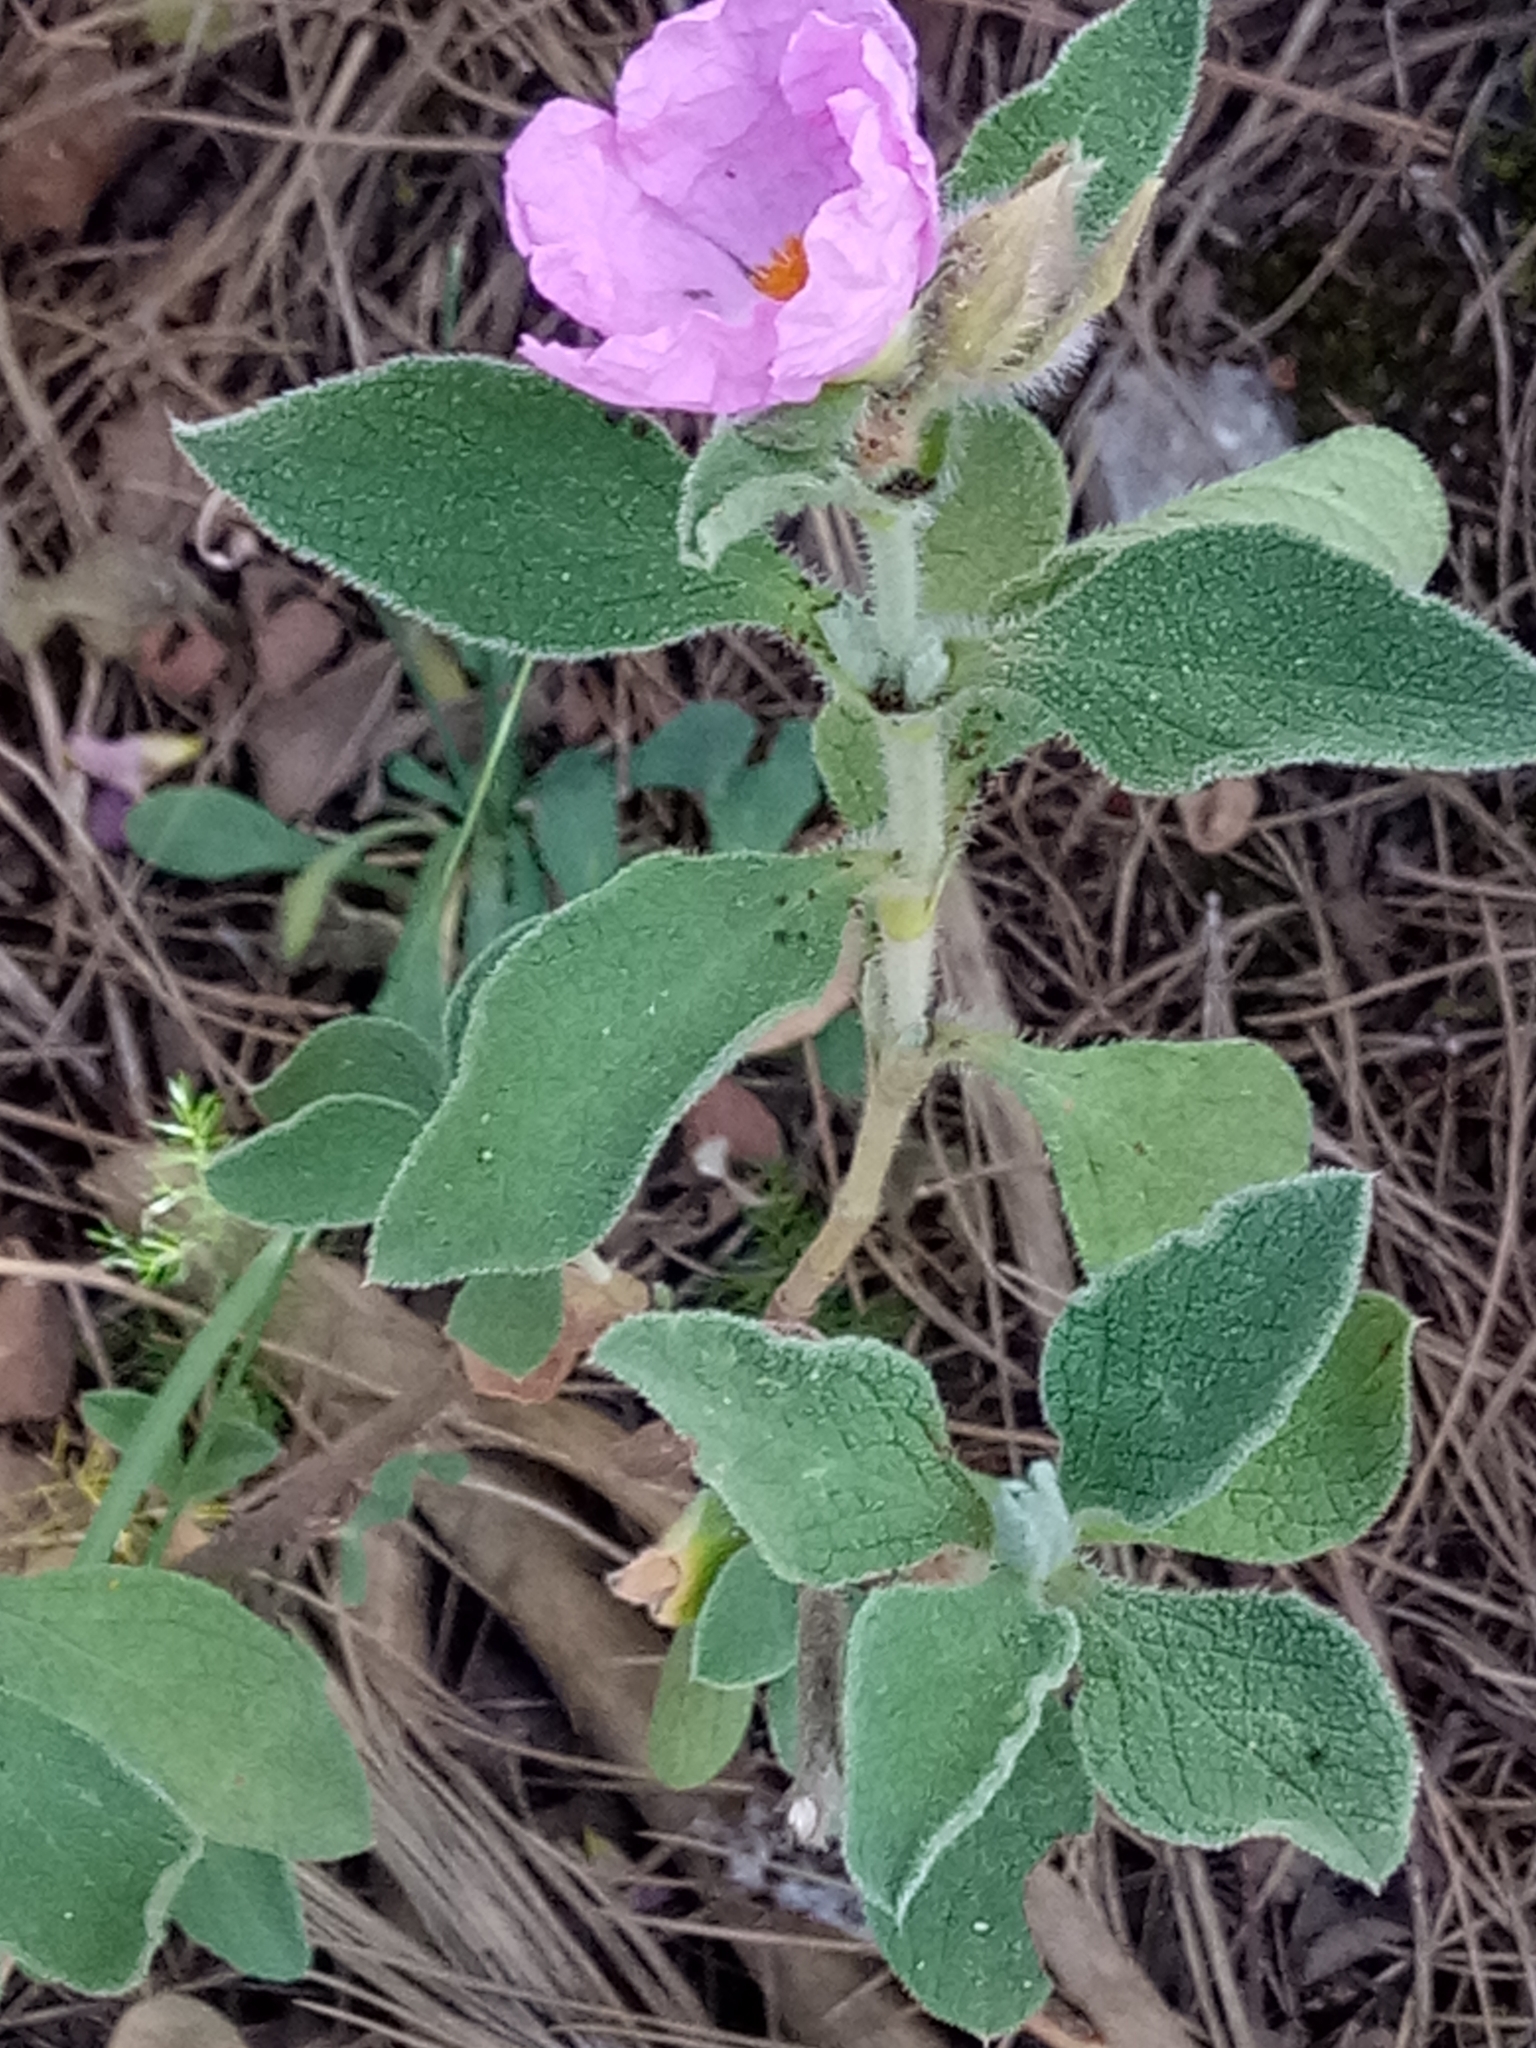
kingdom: Plantae
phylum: Tracheophyta
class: Magnoliopsida
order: Malvales
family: Cistaceae
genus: Cistus
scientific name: Cistus creticus
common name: Cretan rockrose
